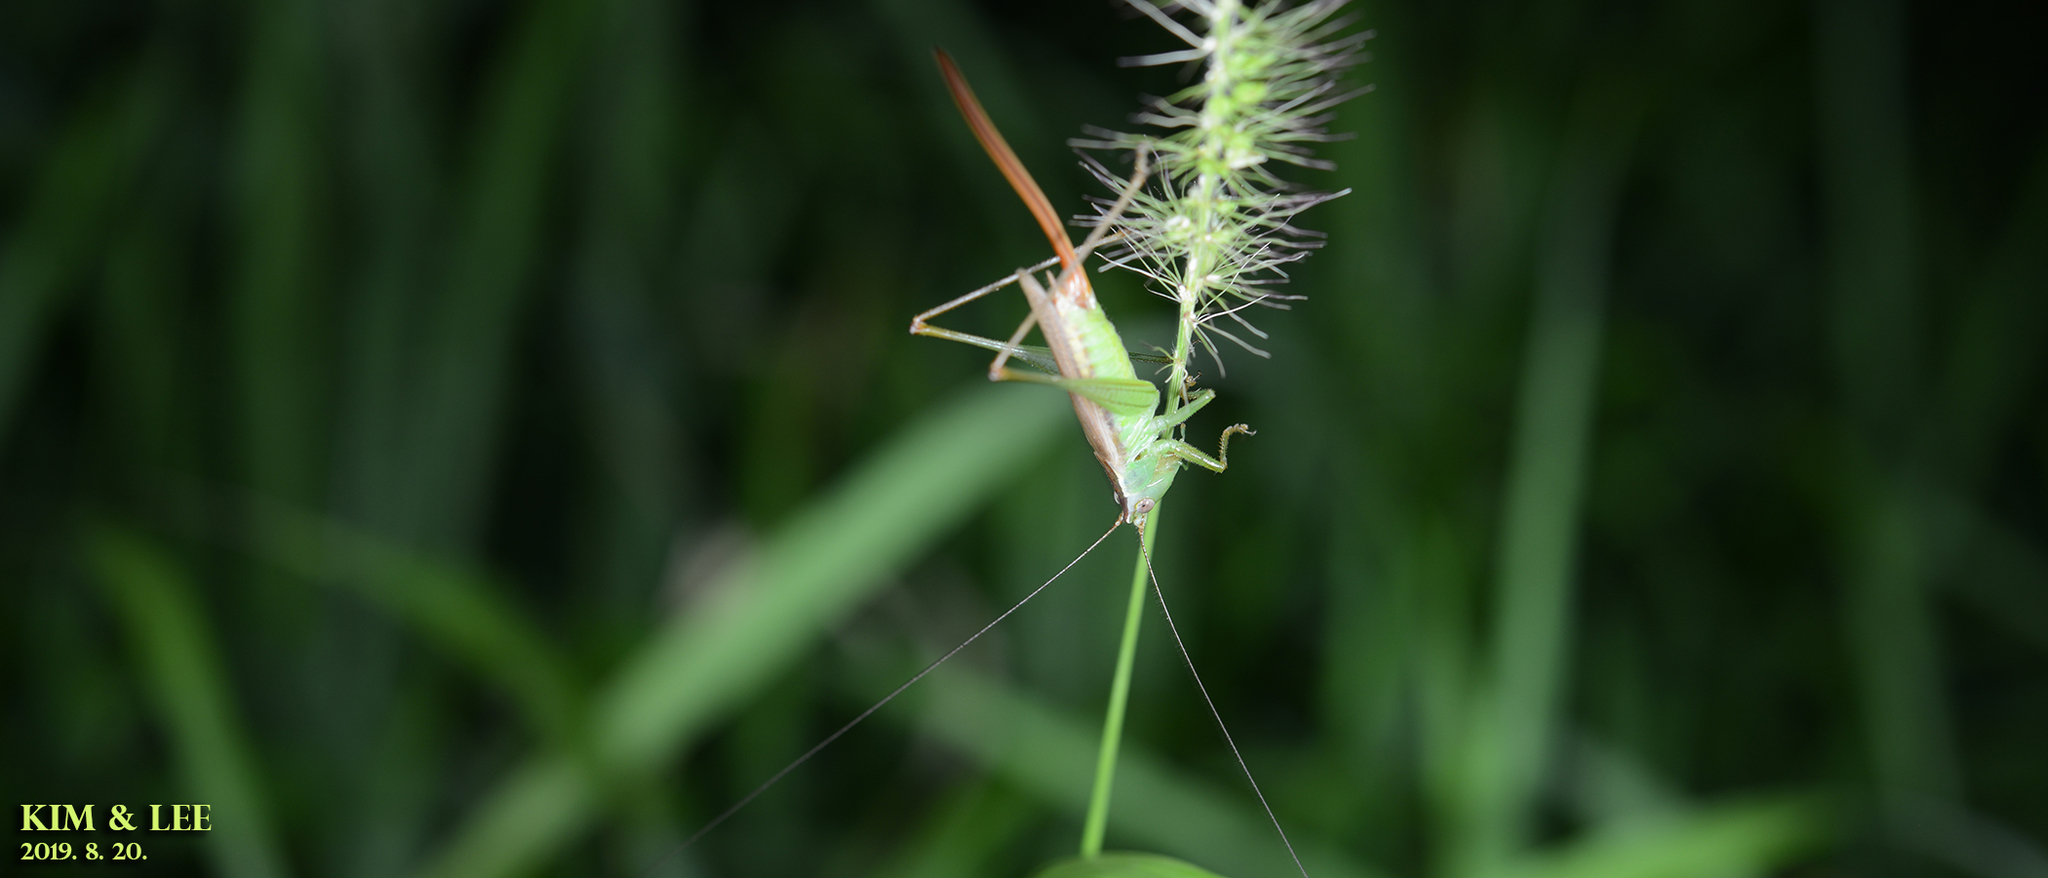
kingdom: Animalia
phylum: Arthropoda
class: Insecta
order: Orthoptera
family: Tettigoniidae
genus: Conocephalus
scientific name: Conocephalus exemptus
